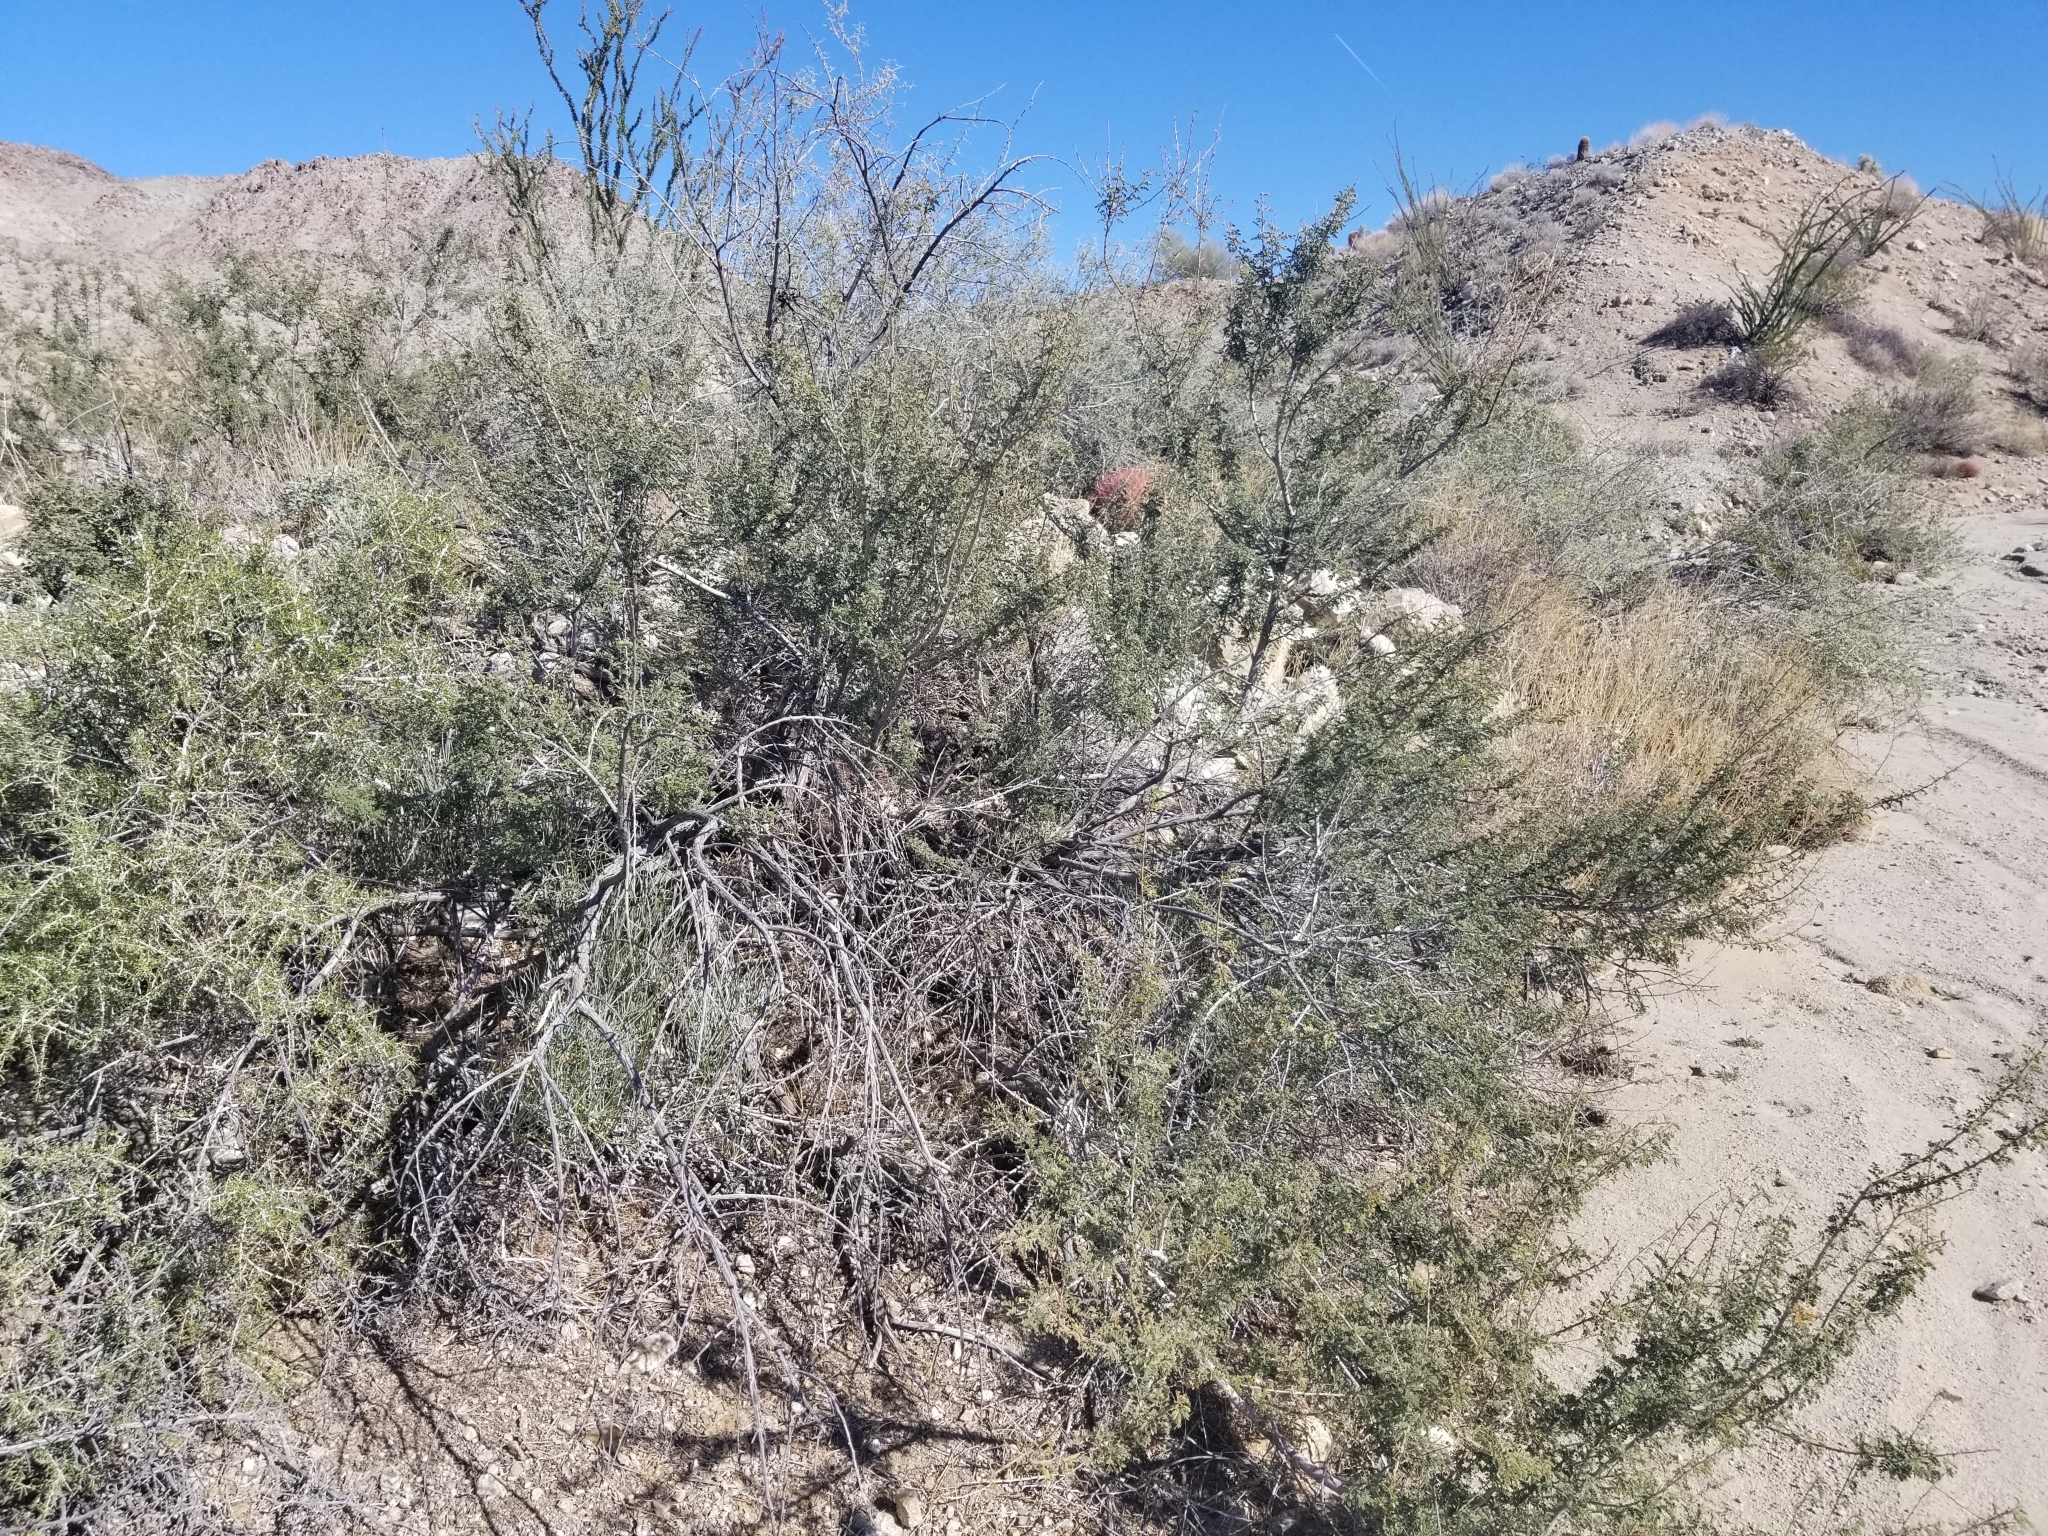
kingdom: Plantae
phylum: Tracheophyta
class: Magnoliopsida
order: Fabales
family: Fabaceae
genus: Senegalia
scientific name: Senegalia greggii
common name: Texas-mimosa
